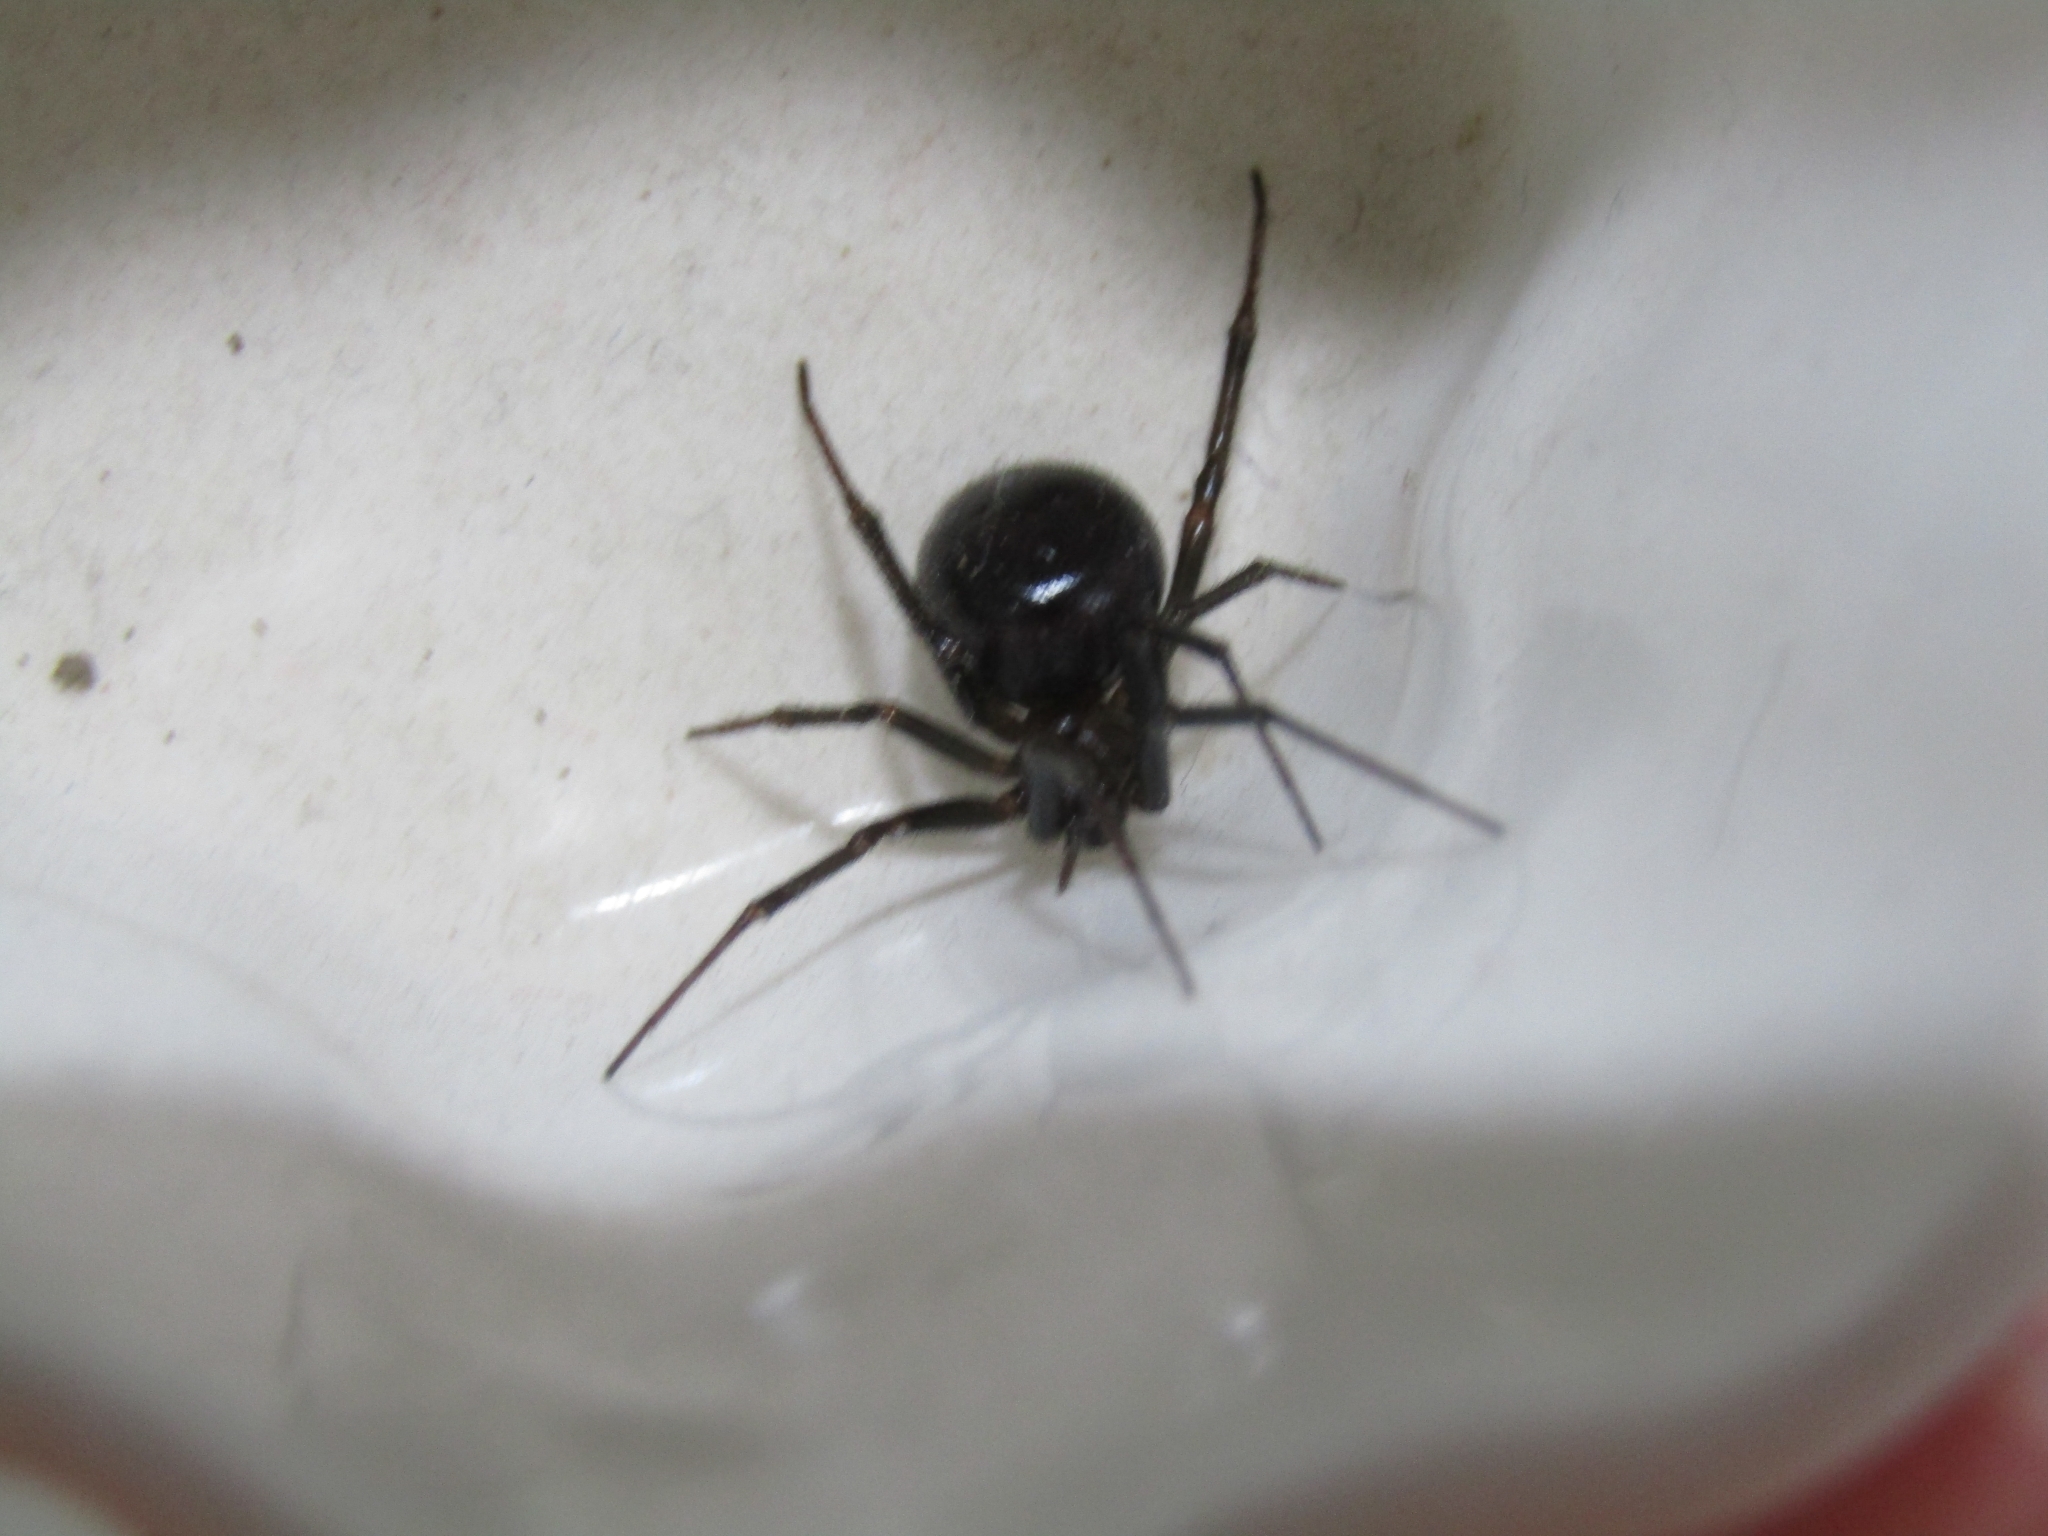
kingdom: Animalia
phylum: Arthropoda
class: Arachnida
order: Araneae
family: Theridiidae
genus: Steatoda
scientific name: Steatoda grossa
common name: False black widow
